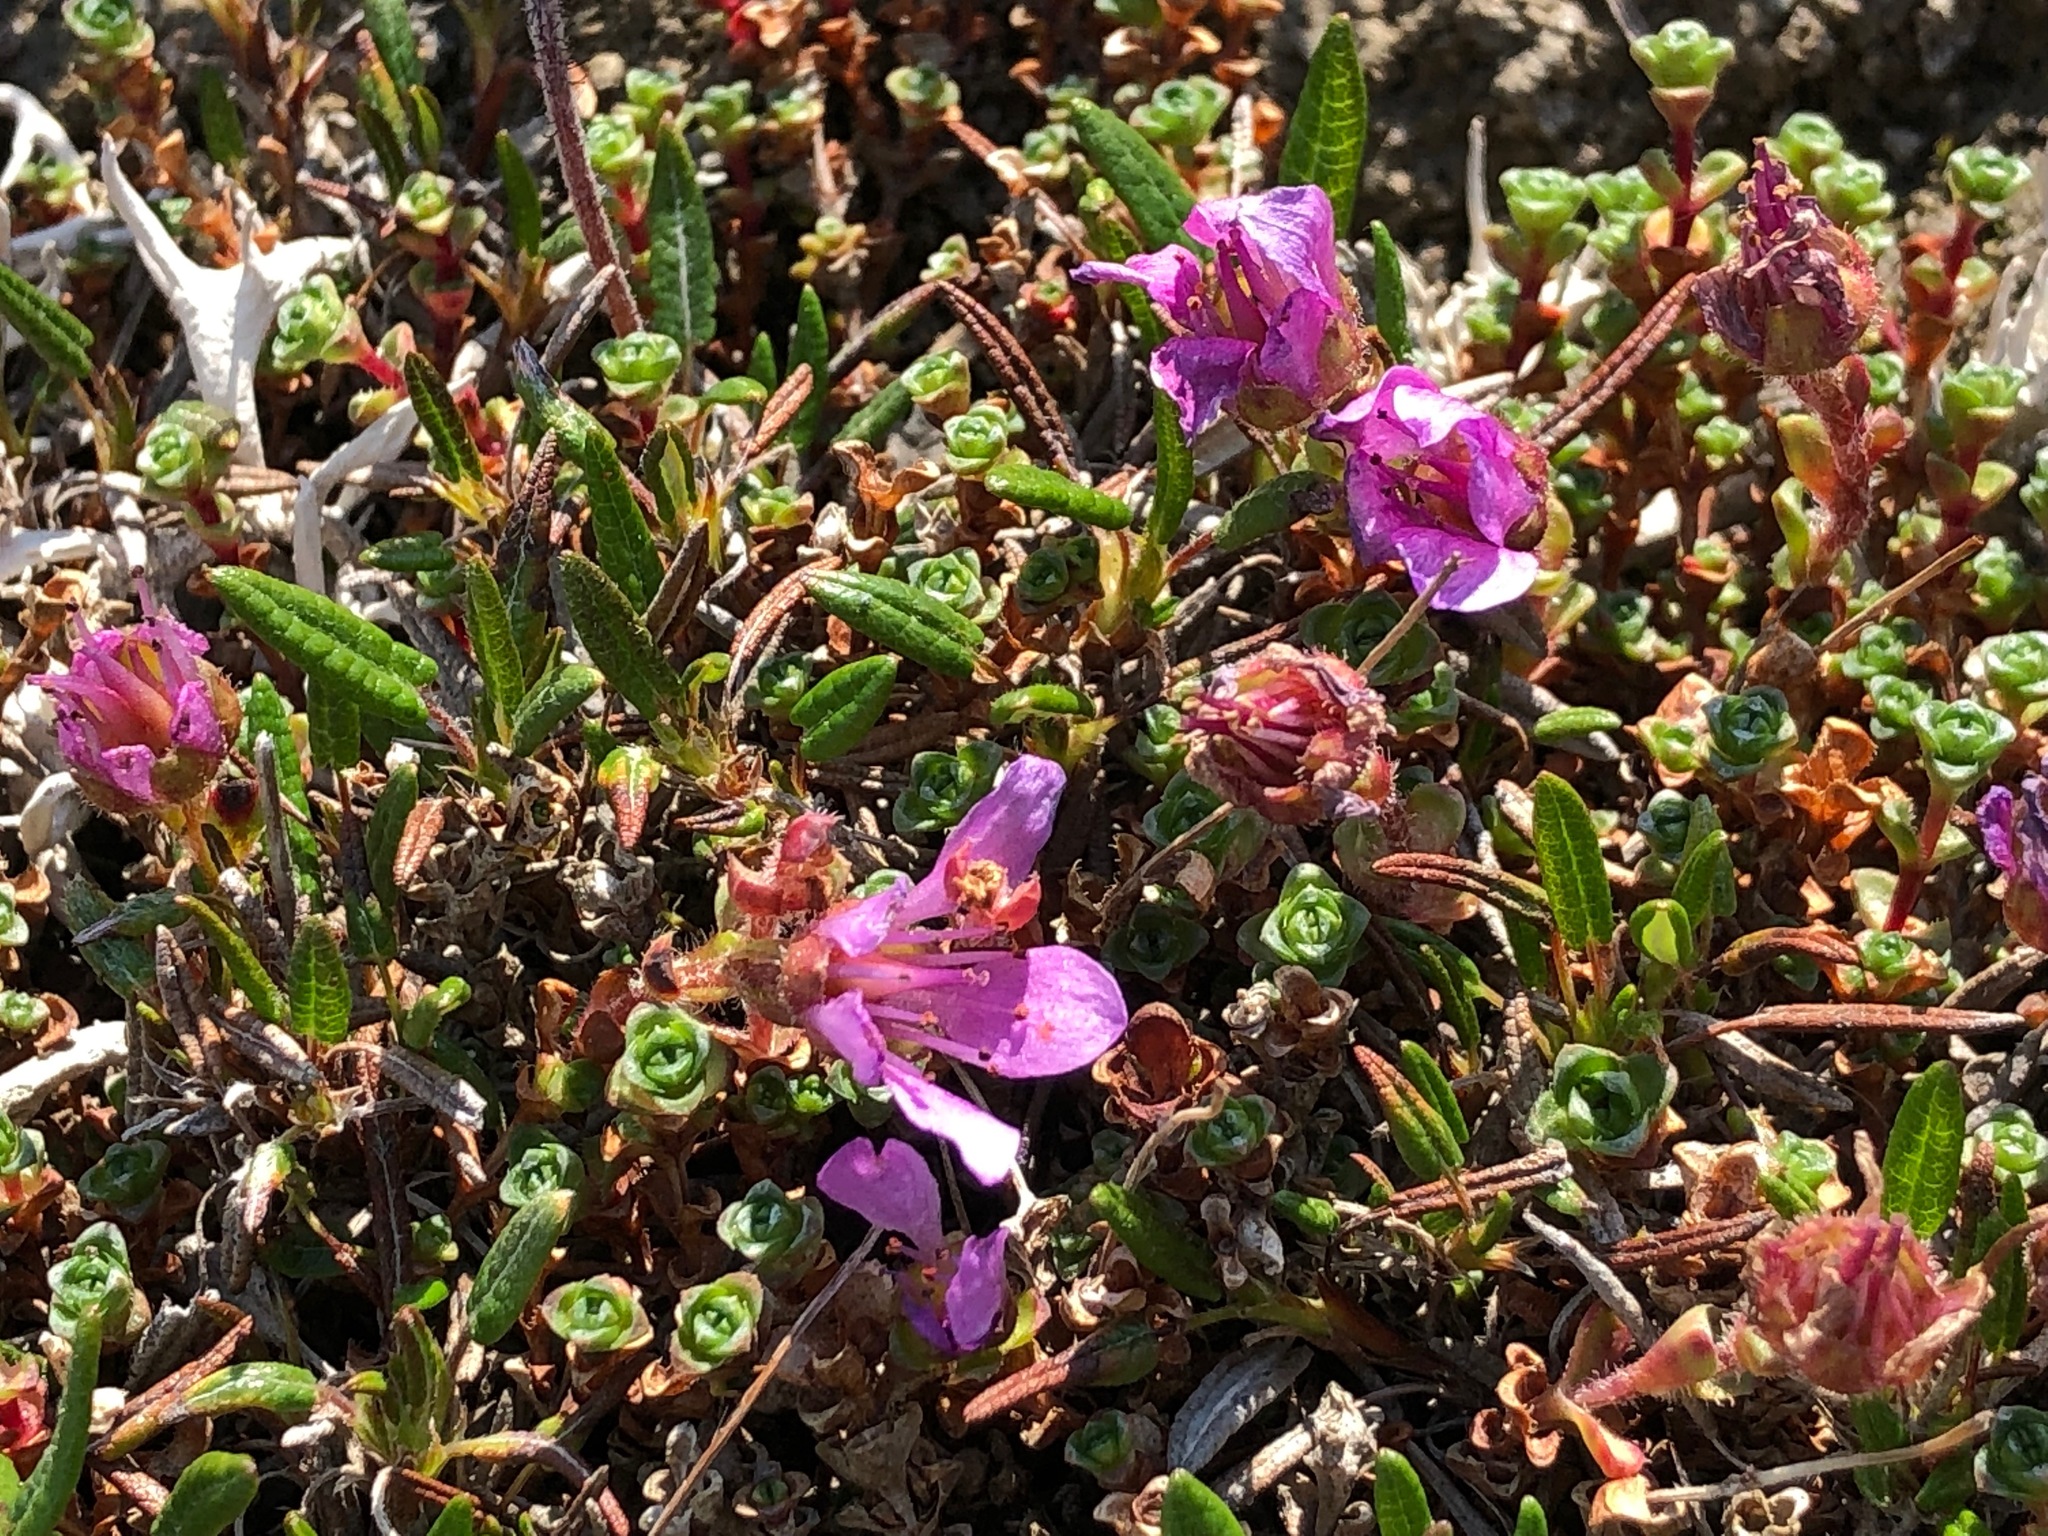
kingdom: Plantae
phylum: Tracheophyta
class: Magnoliopsida
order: Saxifragales
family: Saxifragaceae
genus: Saxifraga
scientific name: Saxifraga oppositifolia
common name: Purple saxifrage
